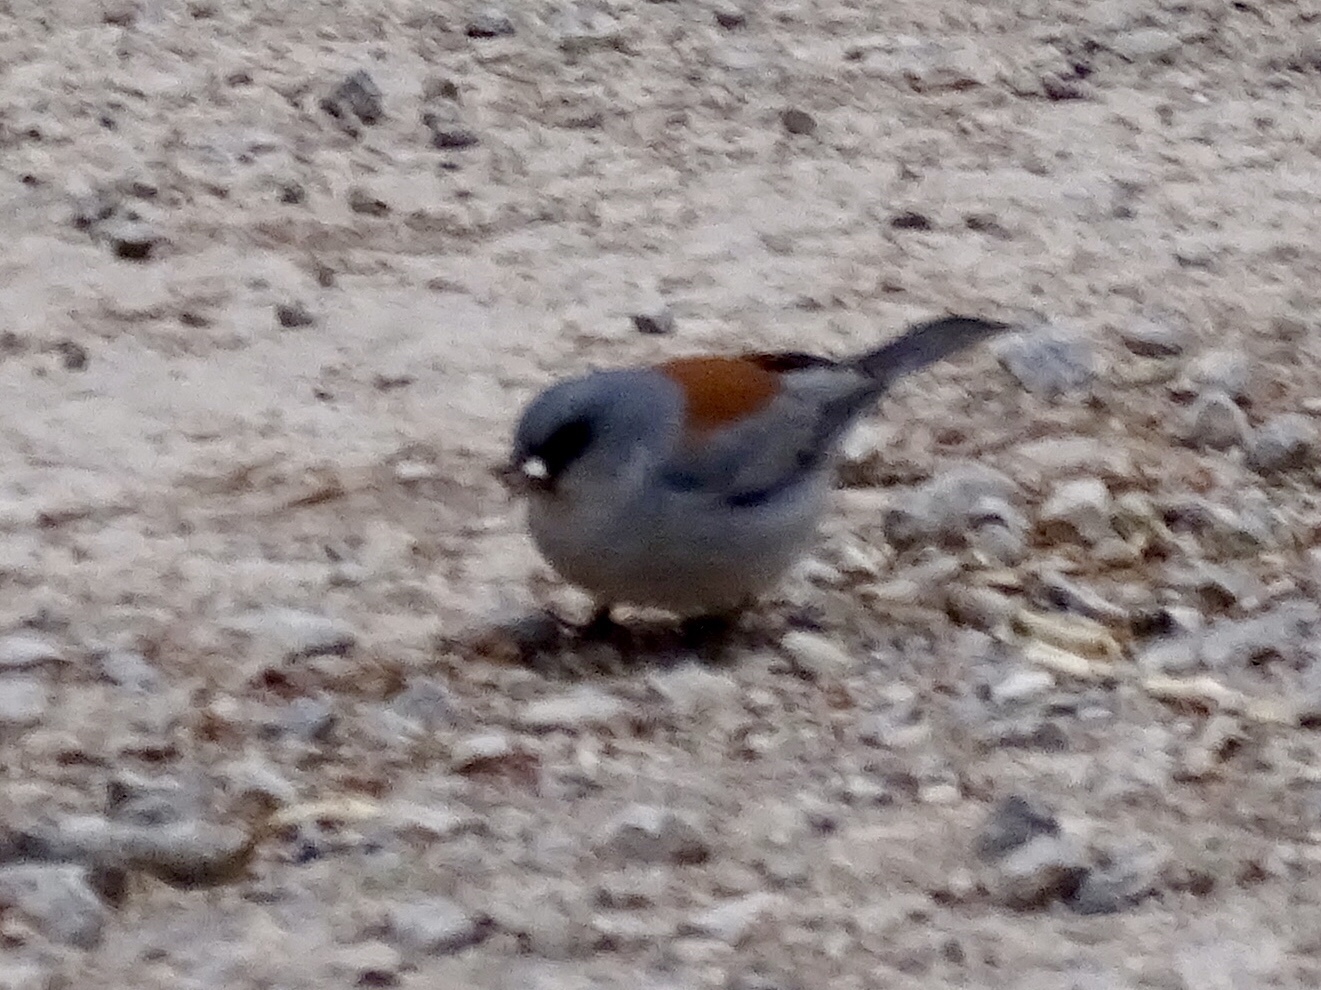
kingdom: Animalia
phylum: Chordata
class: Aves
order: Passeriformes
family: Passerellidae
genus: Junco
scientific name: Junco hyemalis
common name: Dark-eyed junco
